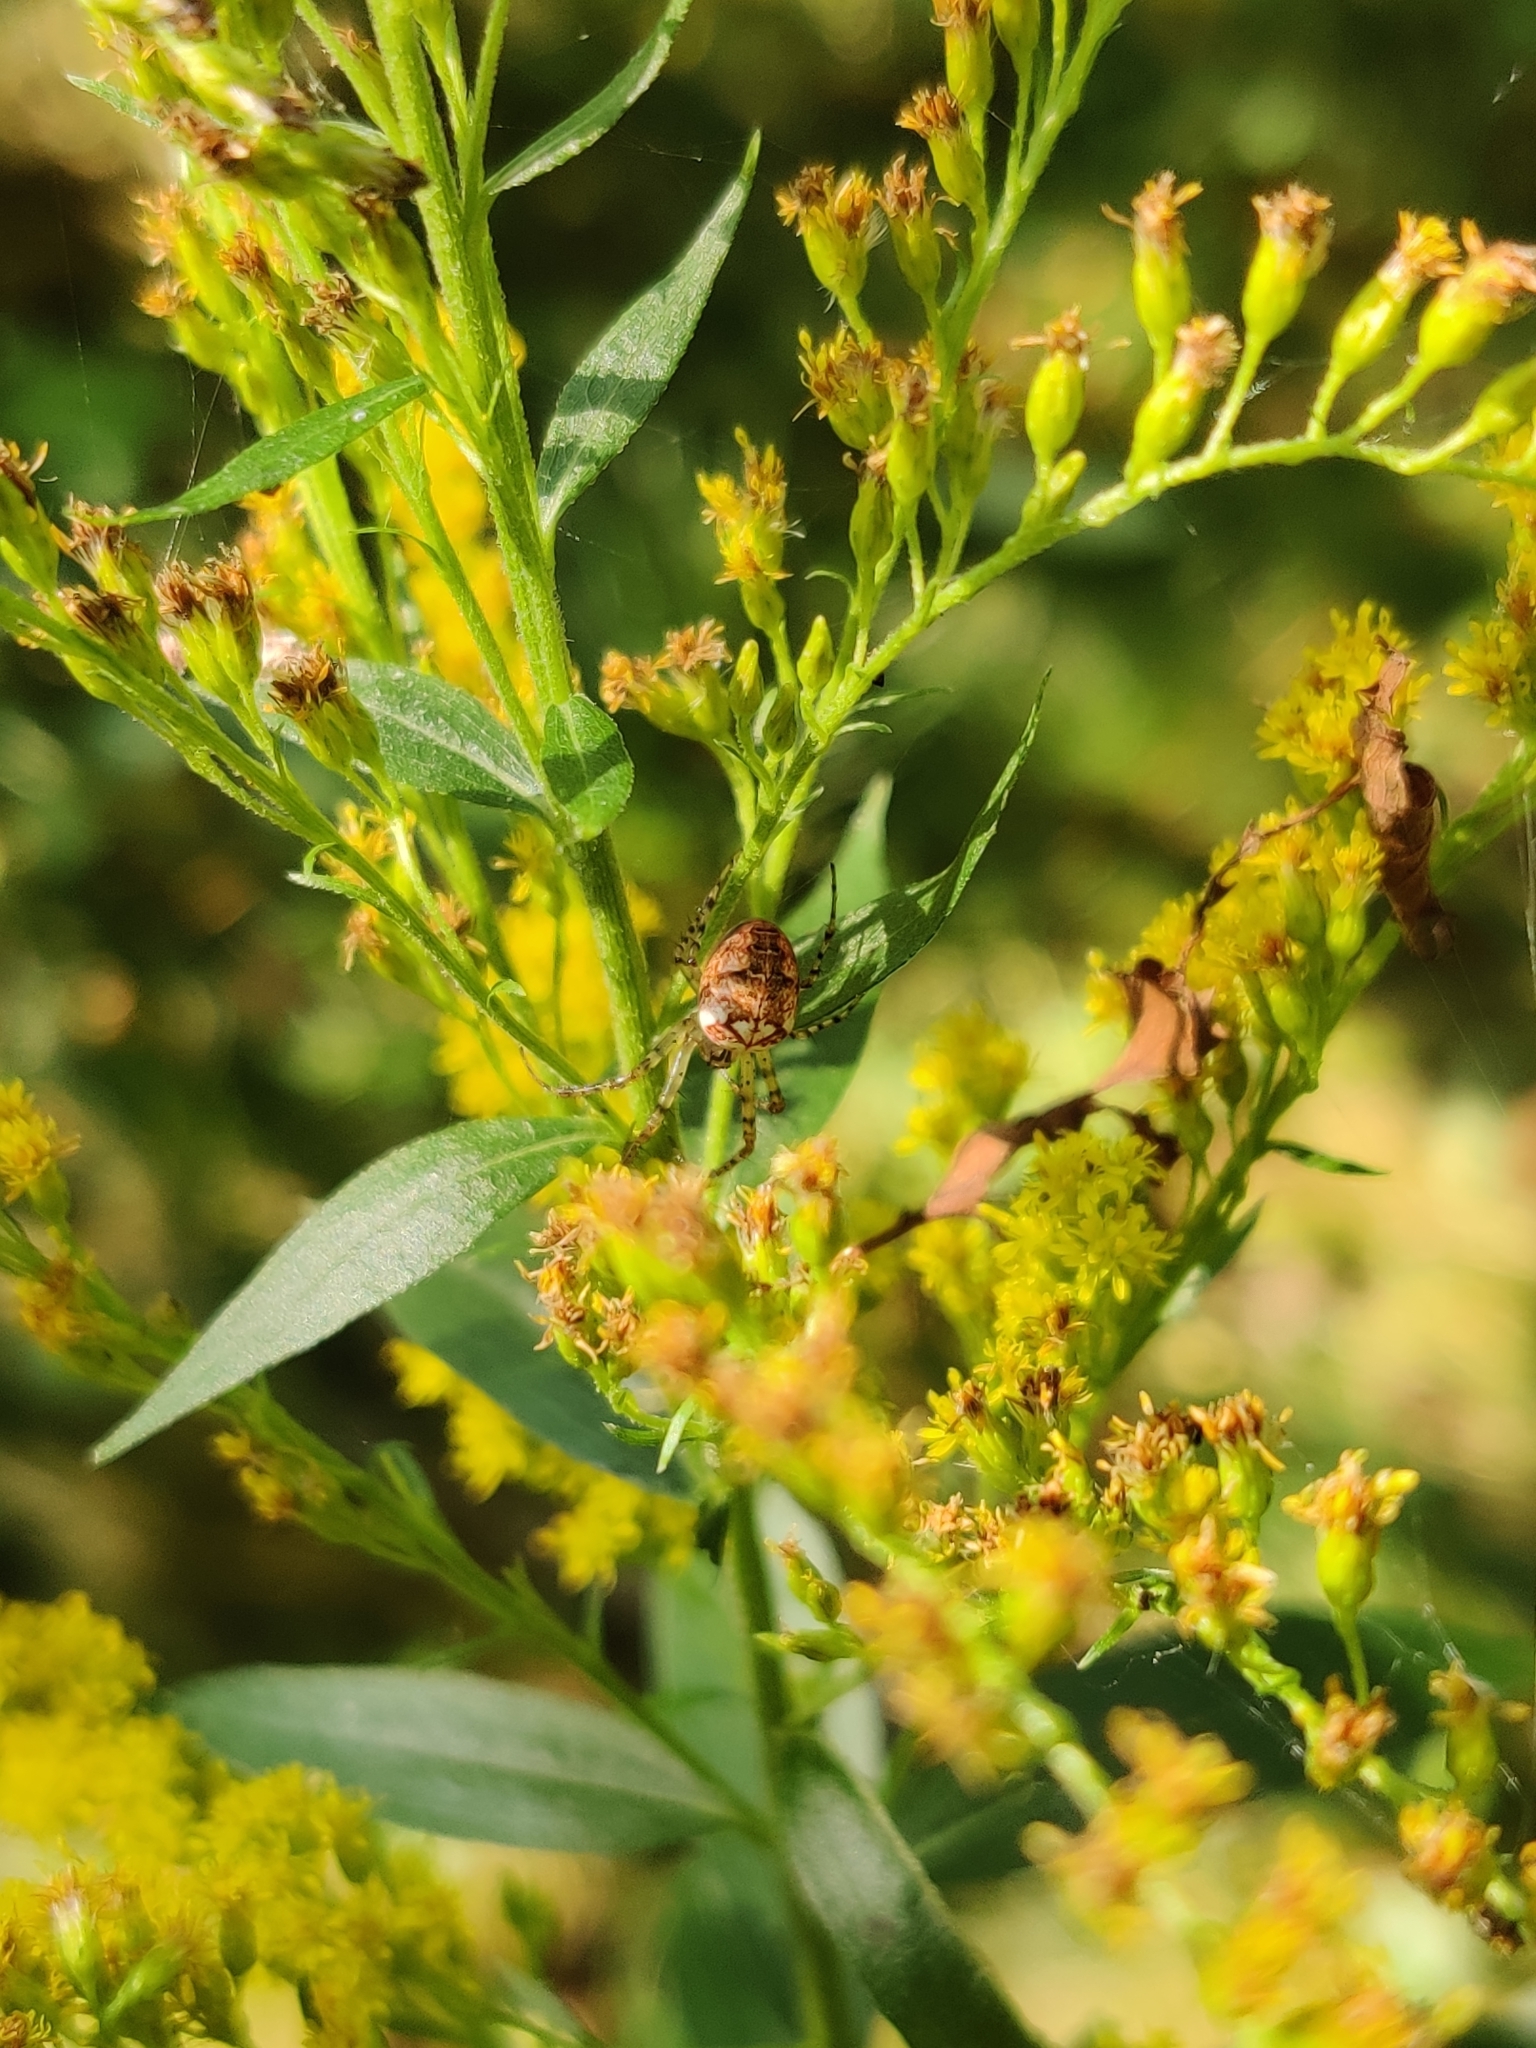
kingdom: Animalia
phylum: Arthropoda
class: Arachnida
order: Araneae
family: Tetragnathidae
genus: Metellina
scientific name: Metellina
